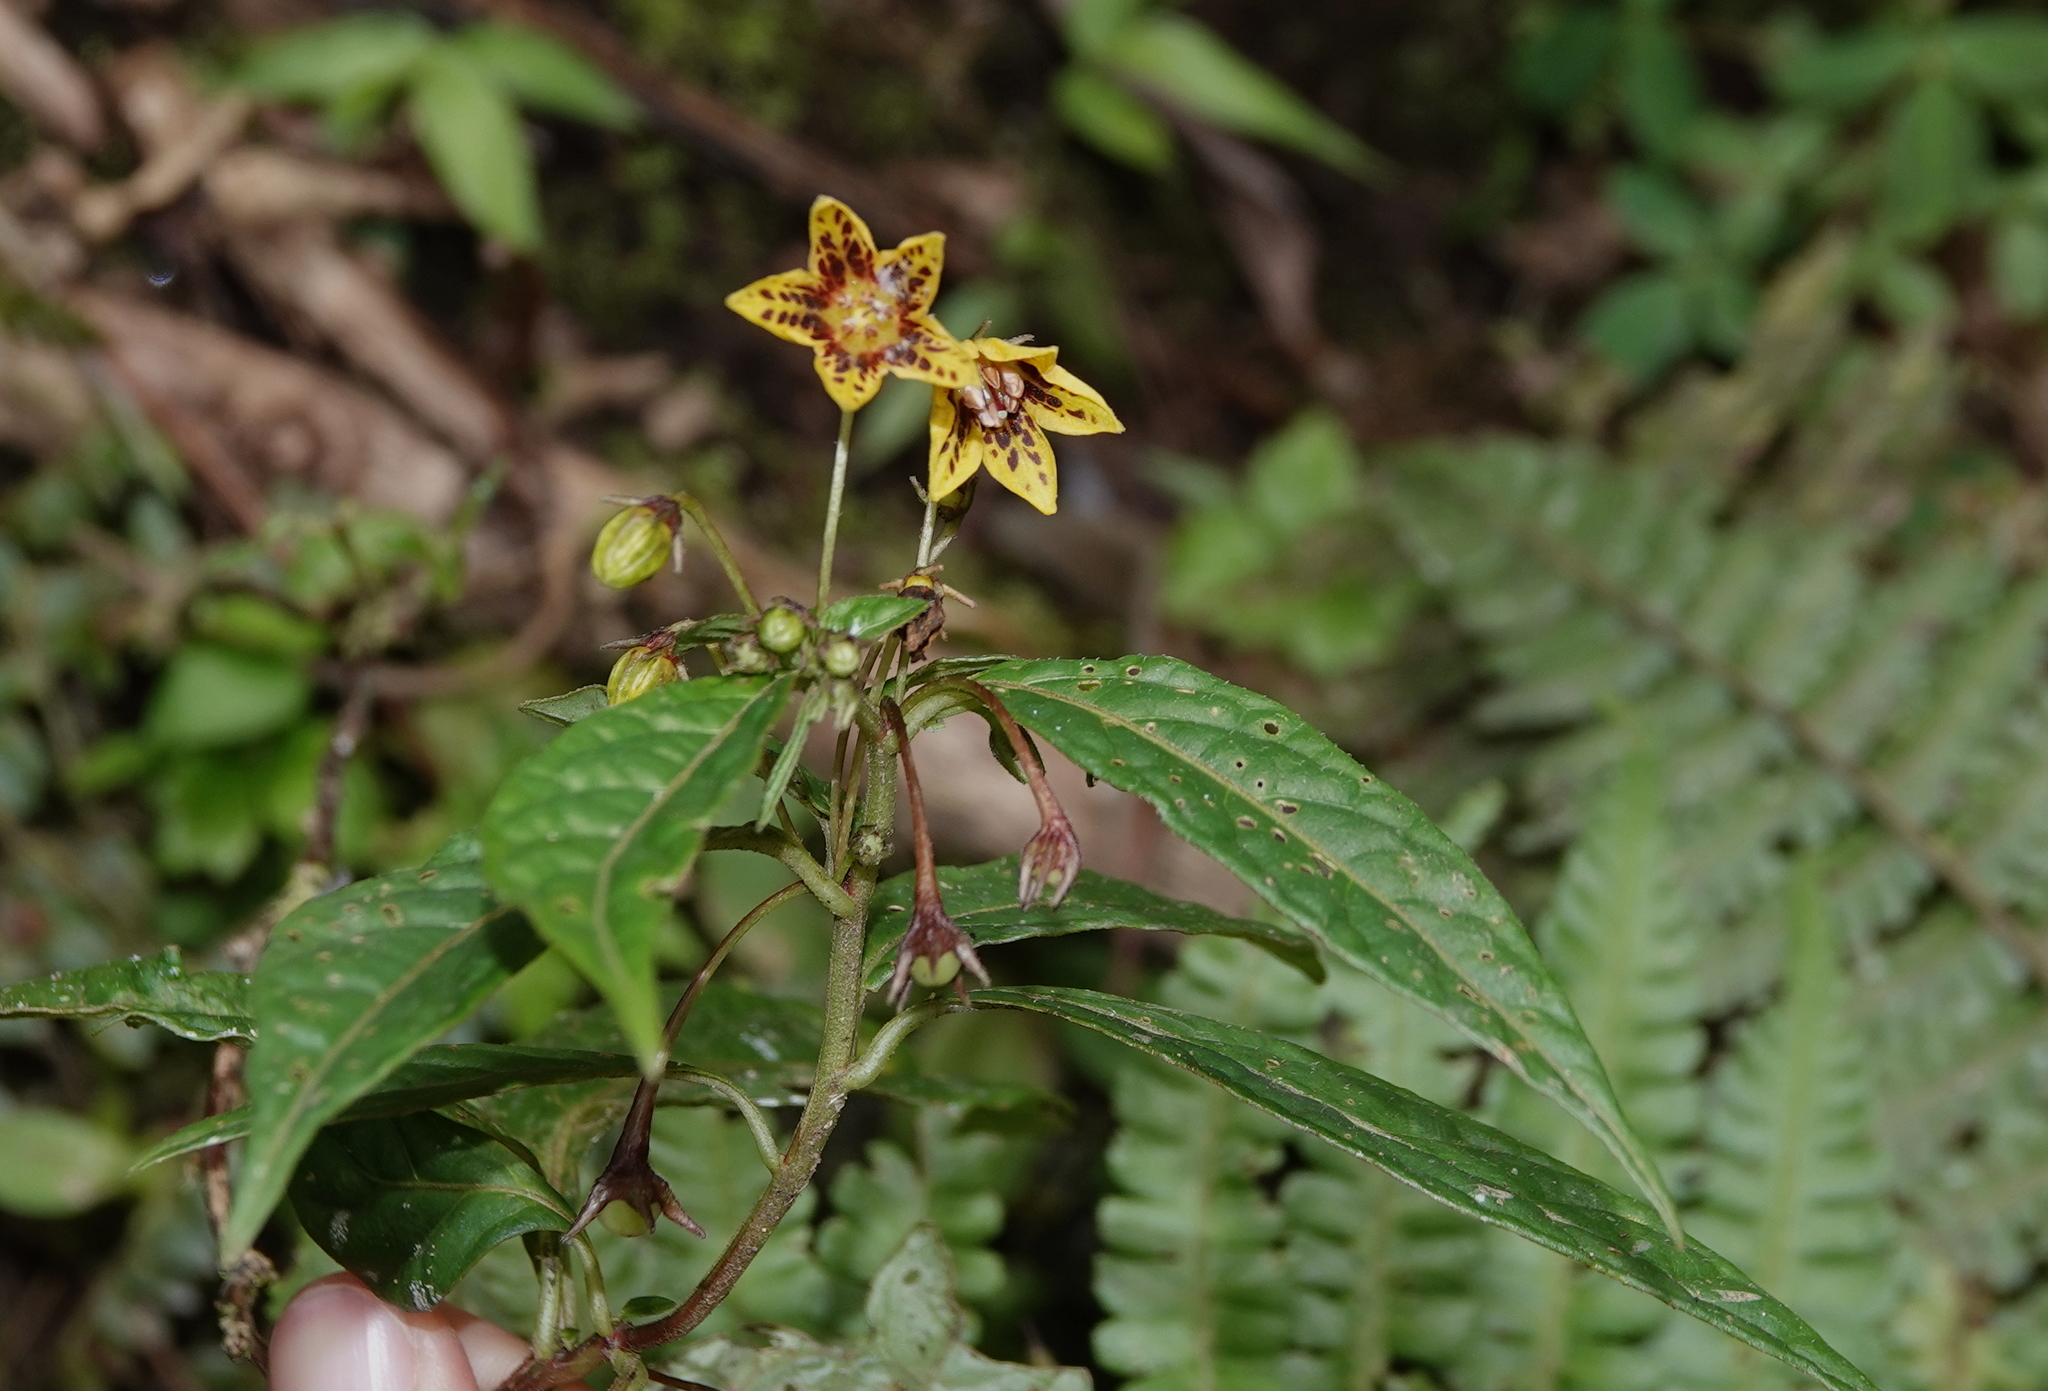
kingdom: Plantae
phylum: Tracheophyta
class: Magnoliopsida
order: Solanales
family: Solanaceae
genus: Capsicum
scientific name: Capsicum geminifolium
